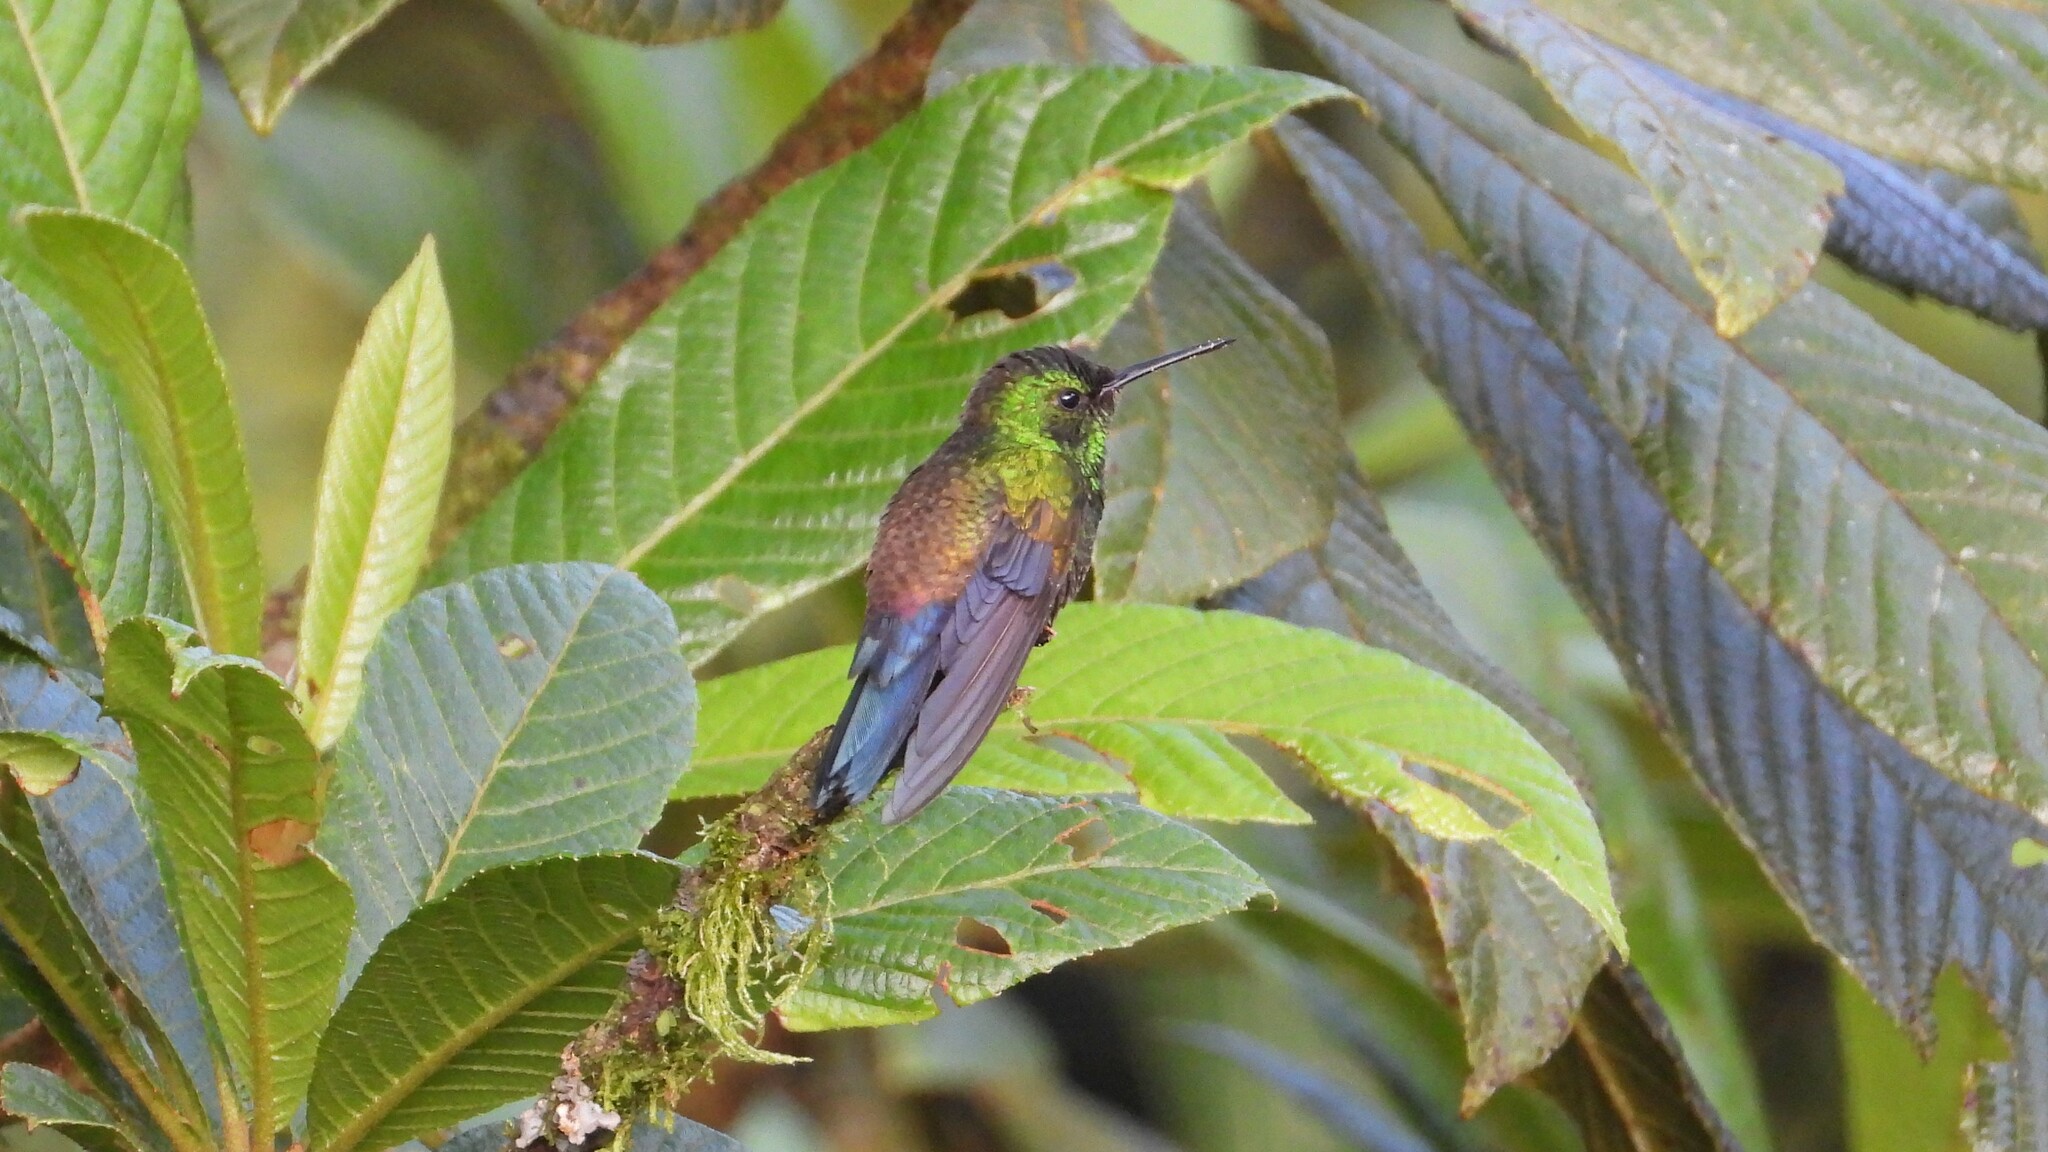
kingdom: Animalia
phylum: Chordata
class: Aves
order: Apodiformes
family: Trochilidae
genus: Saucerottia
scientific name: Saucerottia hoffmanni
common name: Blue-vented hummingbird
